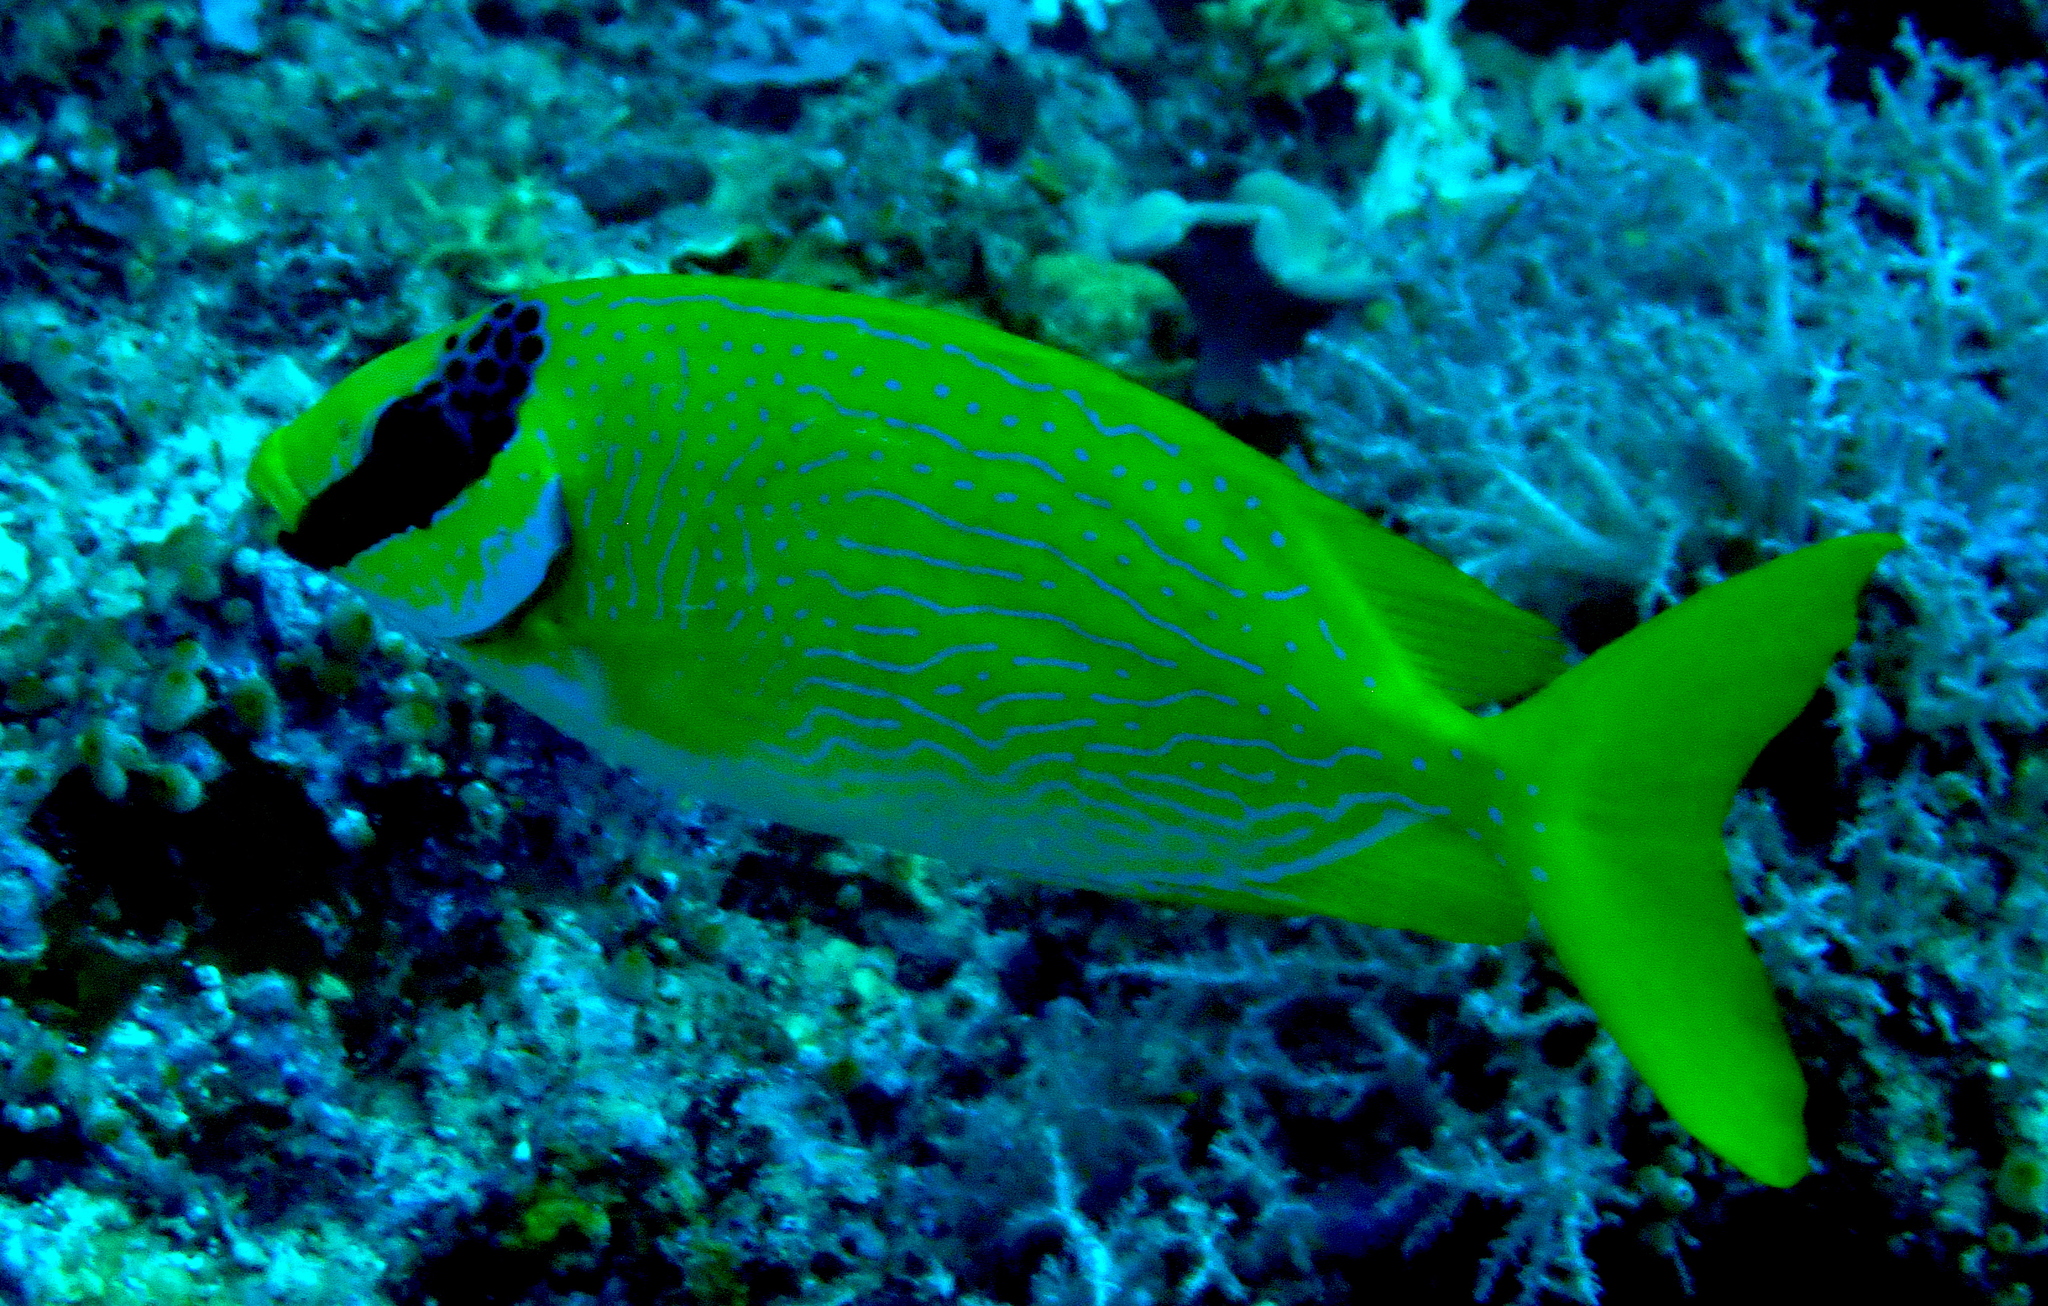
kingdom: Animalia
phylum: Chordata
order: Perciformes
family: Siganidae
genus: Siganus
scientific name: Siganus puellus
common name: Masked rabbitfish
